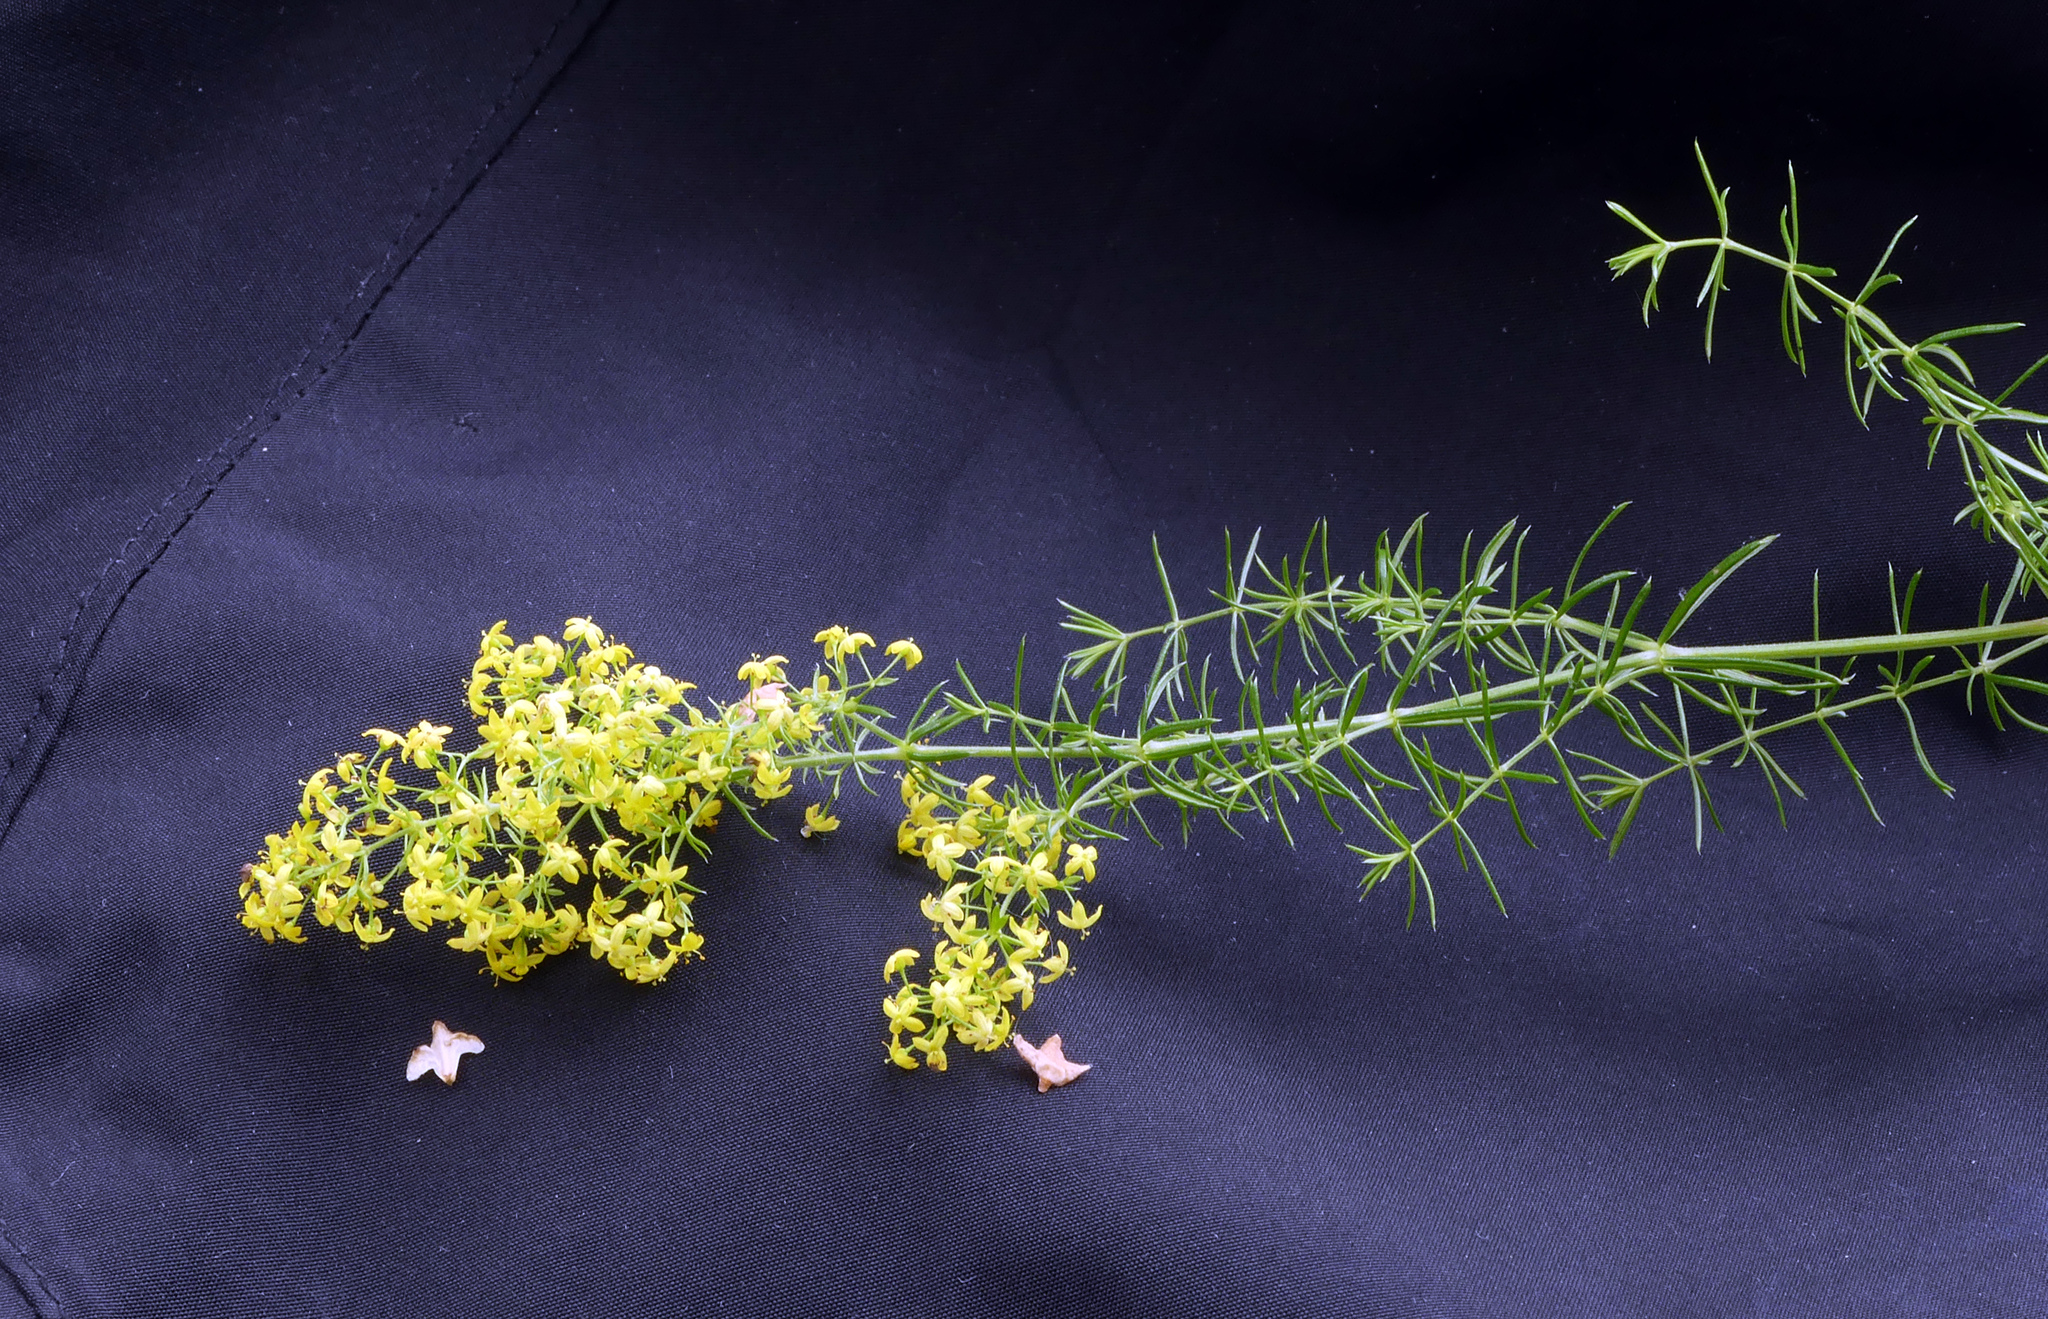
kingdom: Plantae
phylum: Tracheophyta
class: Magnoliopsida
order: Gentianales
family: Rubiaceae
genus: Galium
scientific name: Galium verum
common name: Lady's bedstraw
